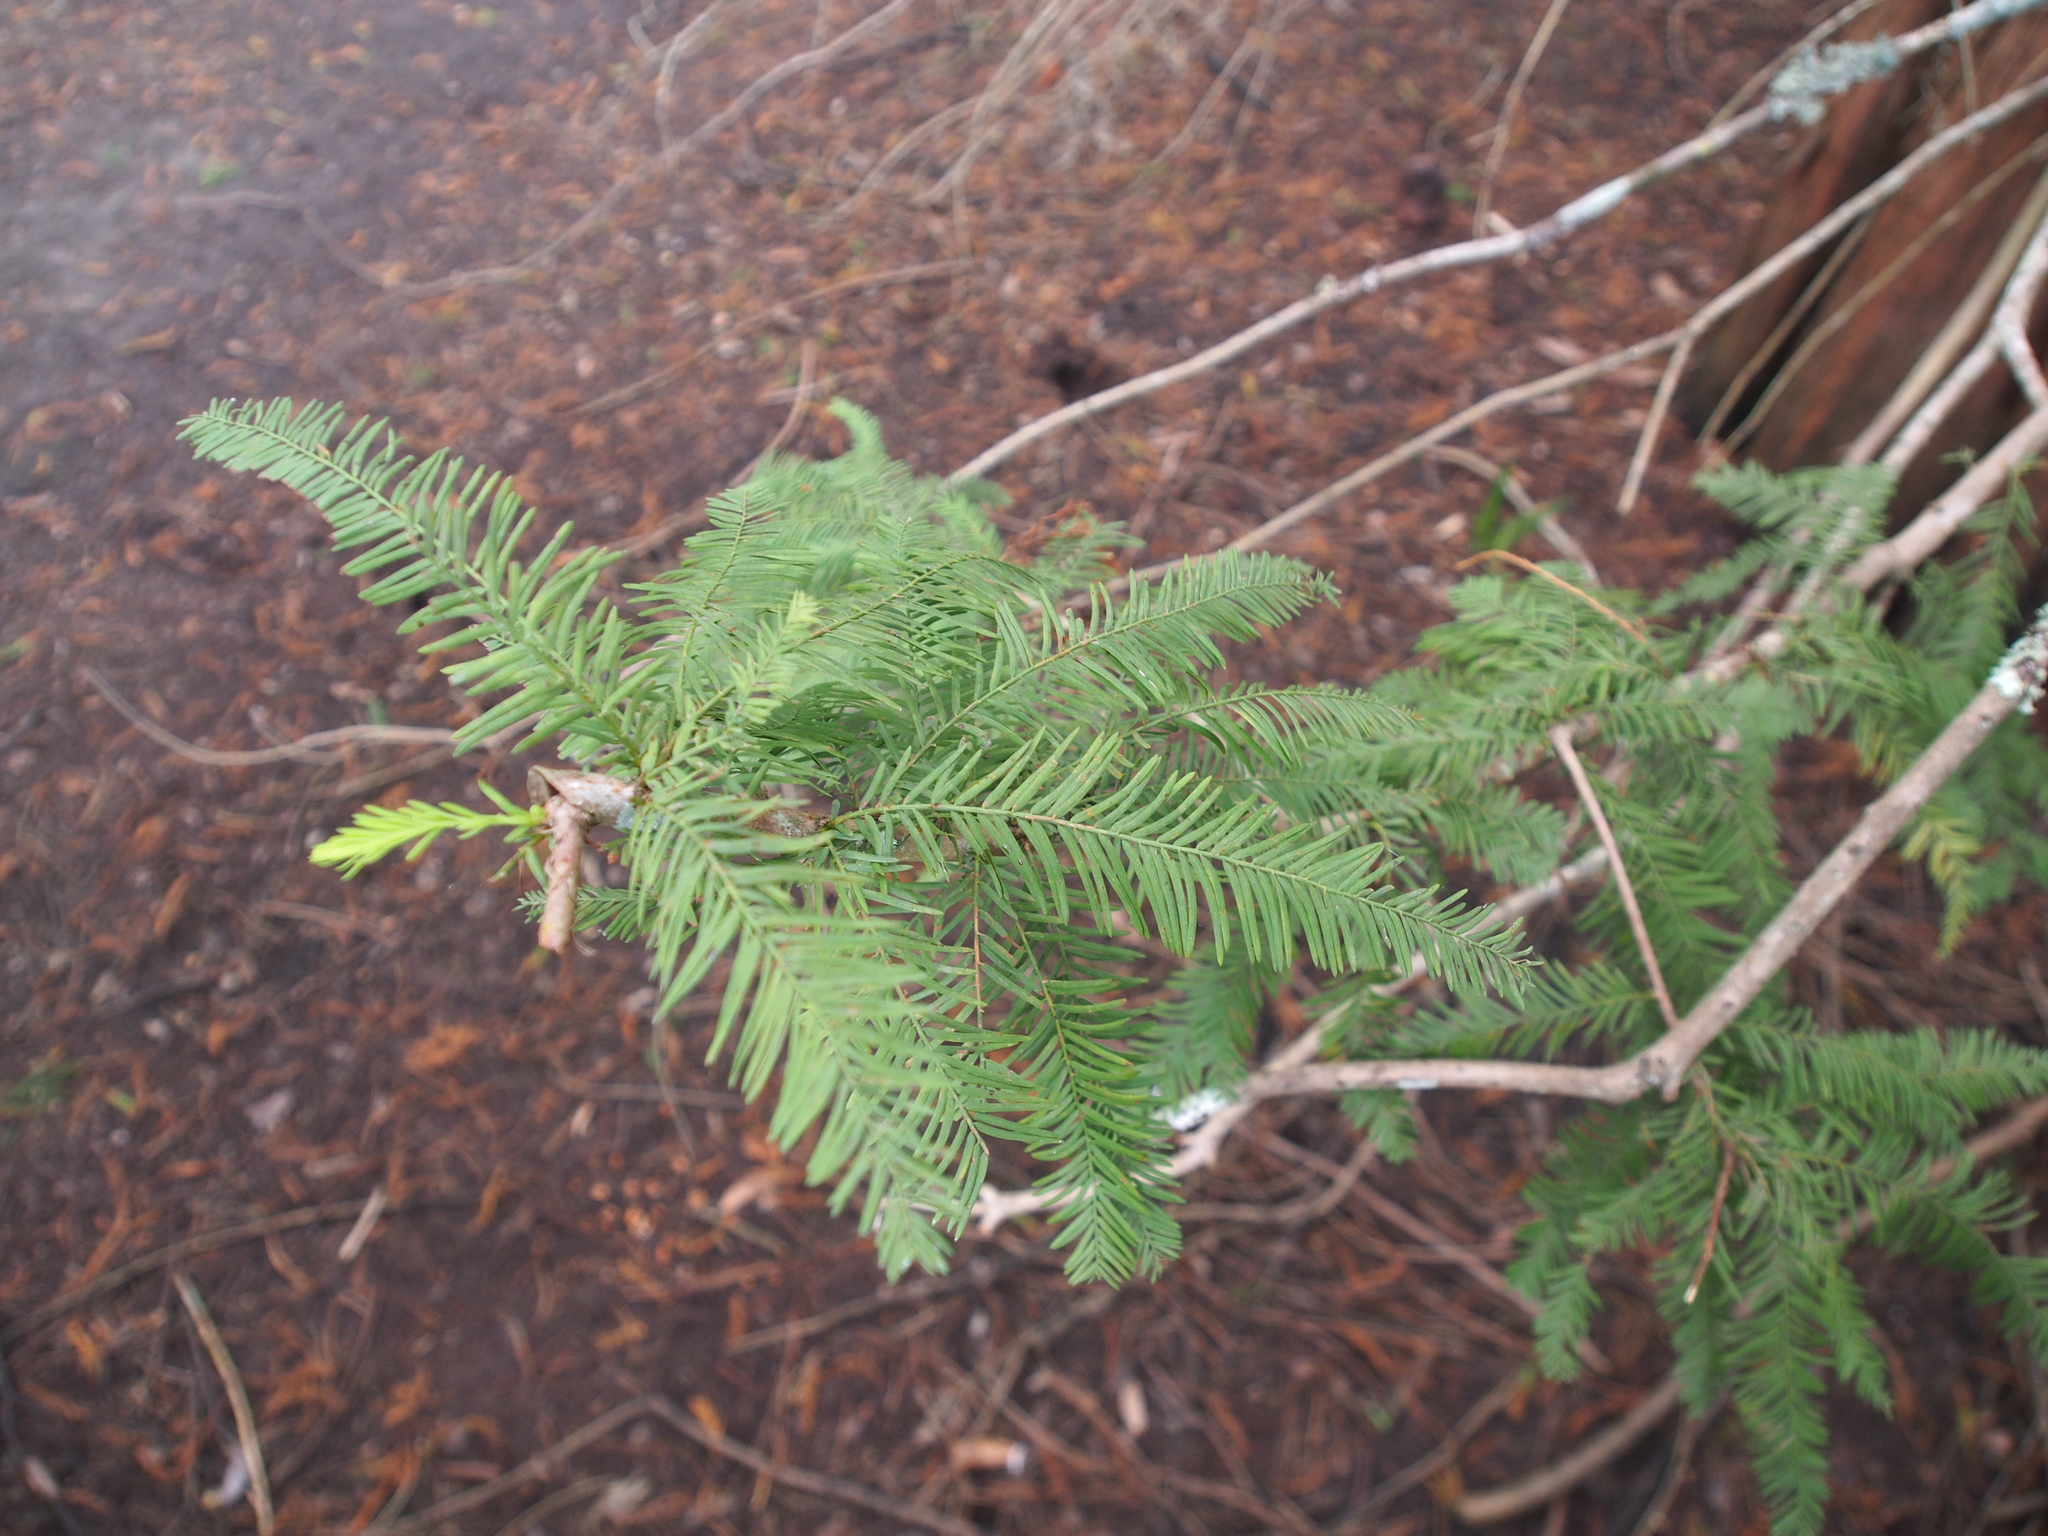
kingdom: Plantae
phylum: Tracheophyta
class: Pinopsida
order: Pinales
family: Cupressaceae
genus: Taxodium
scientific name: Taxodium distichum
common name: Bald cypress
